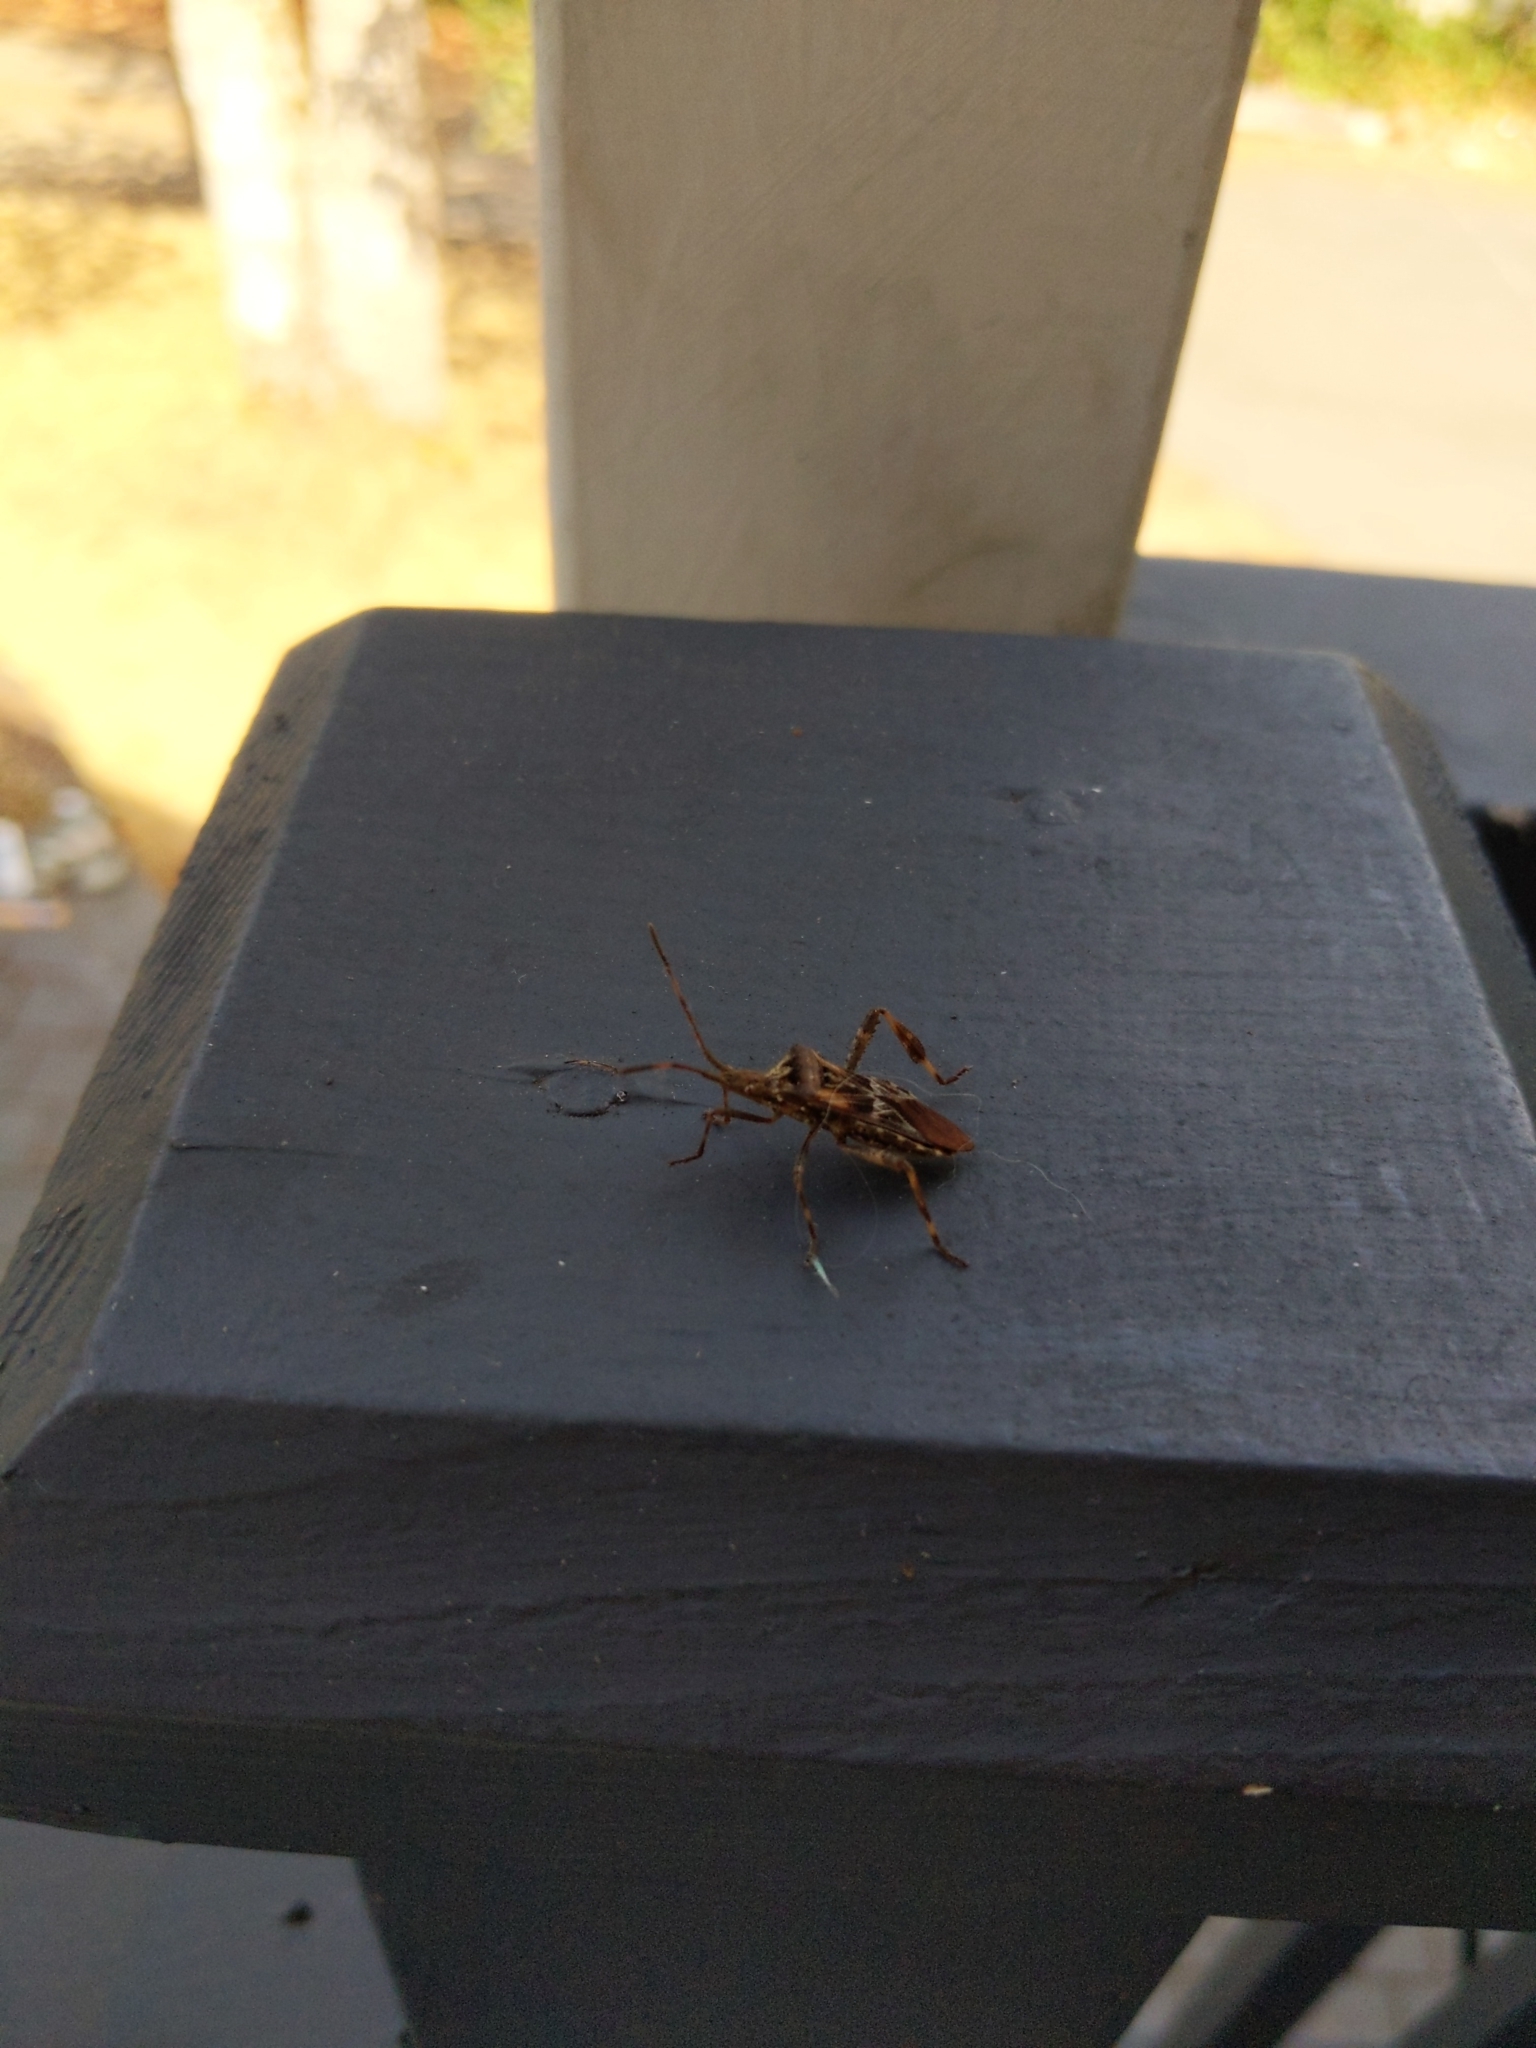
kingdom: Animalia
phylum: Arthropoda
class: Insecta
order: Hemiptera
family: Coreidae
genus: Leptoglossus
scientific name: Leptoglossus occidentalis
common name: Western conifer-seed bug
